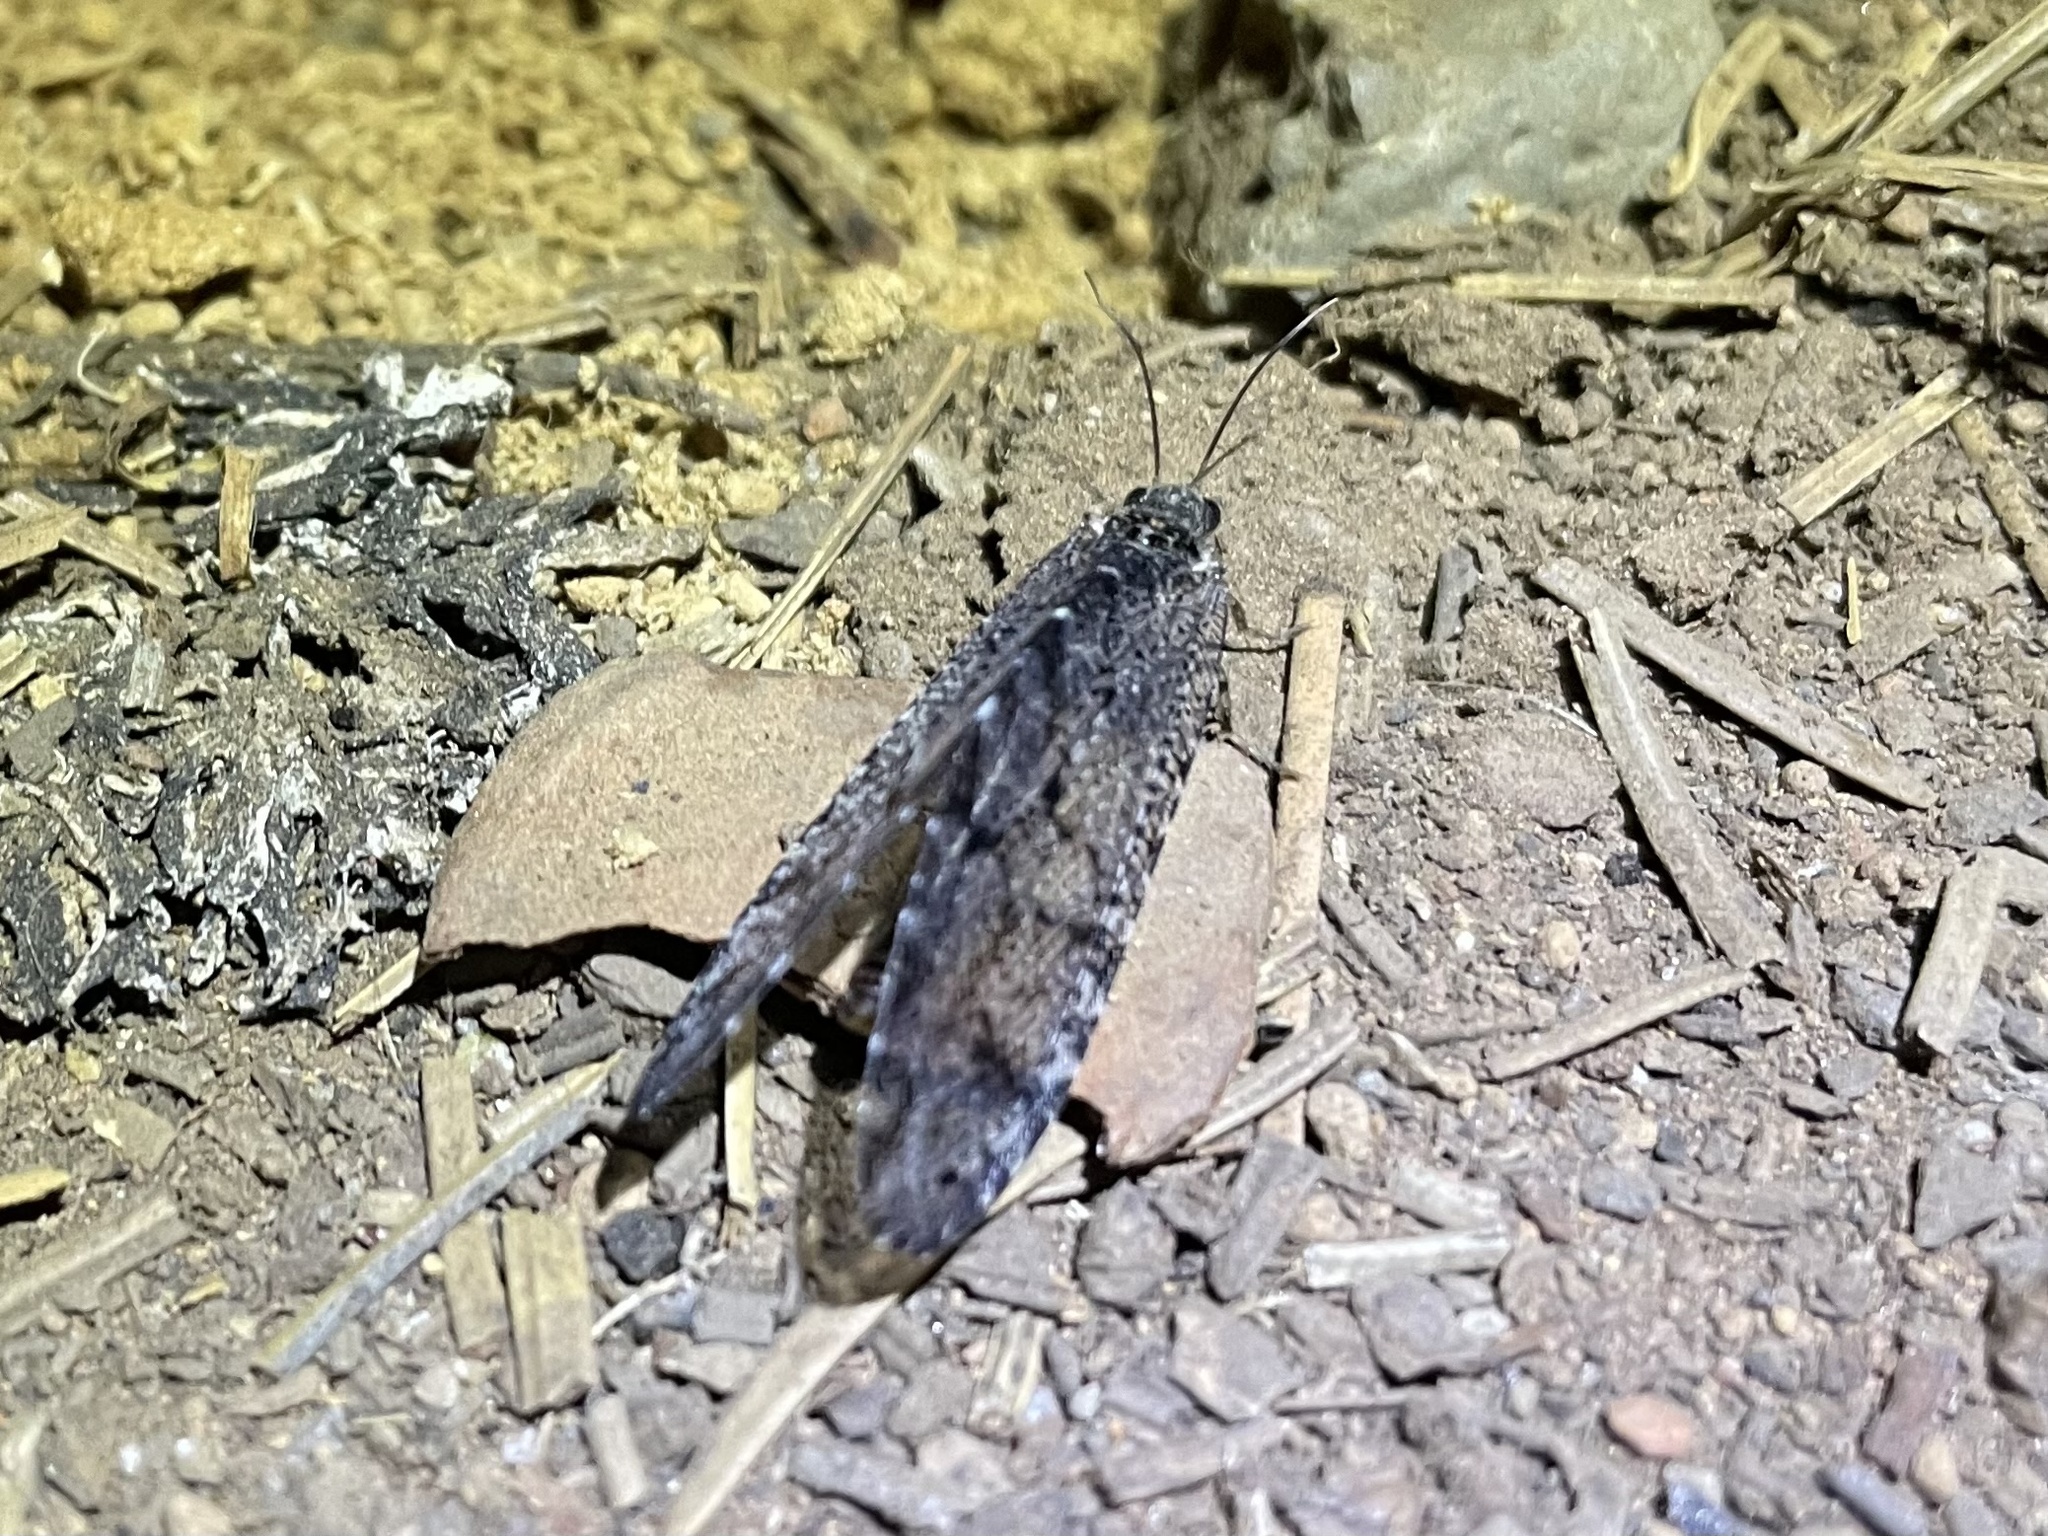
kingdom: Animalia
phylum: Arthropoda
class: Insecta
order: Neuroptera
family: Ithonidae
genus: Polystoechotes
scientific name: Polystoechotes punctata
